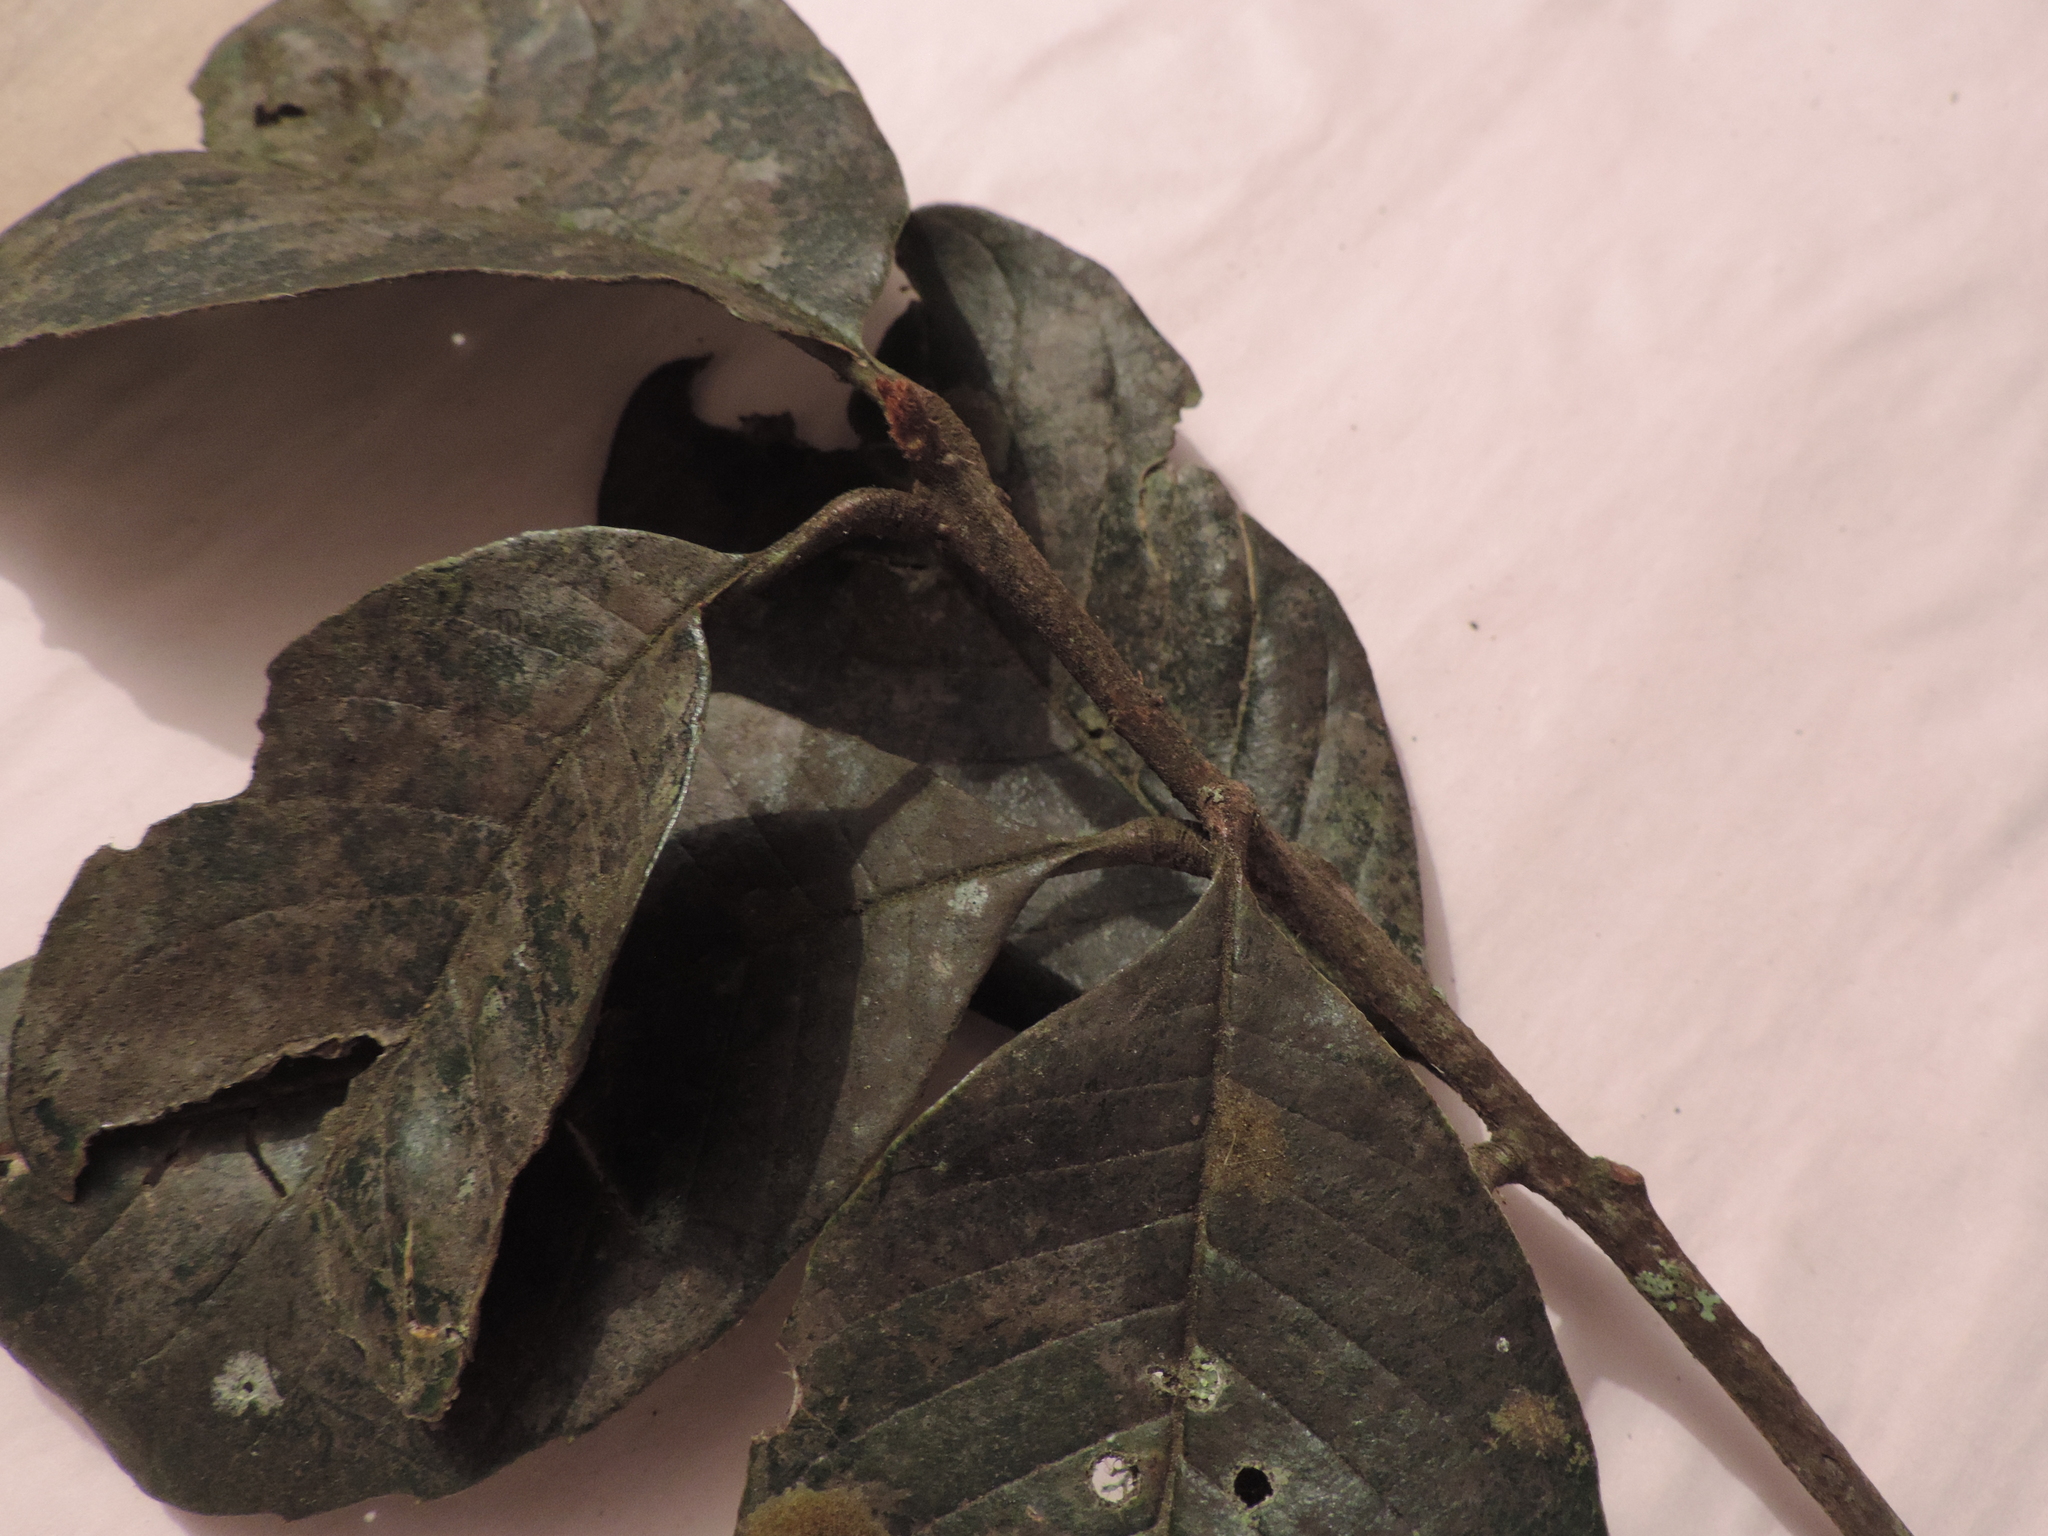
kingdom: Plantae
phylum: Tracheophyta
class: Magnoliopsida
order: Aquifoliales
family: Aquifoliaceae
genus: Ilex
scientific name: Ilex obtusata
